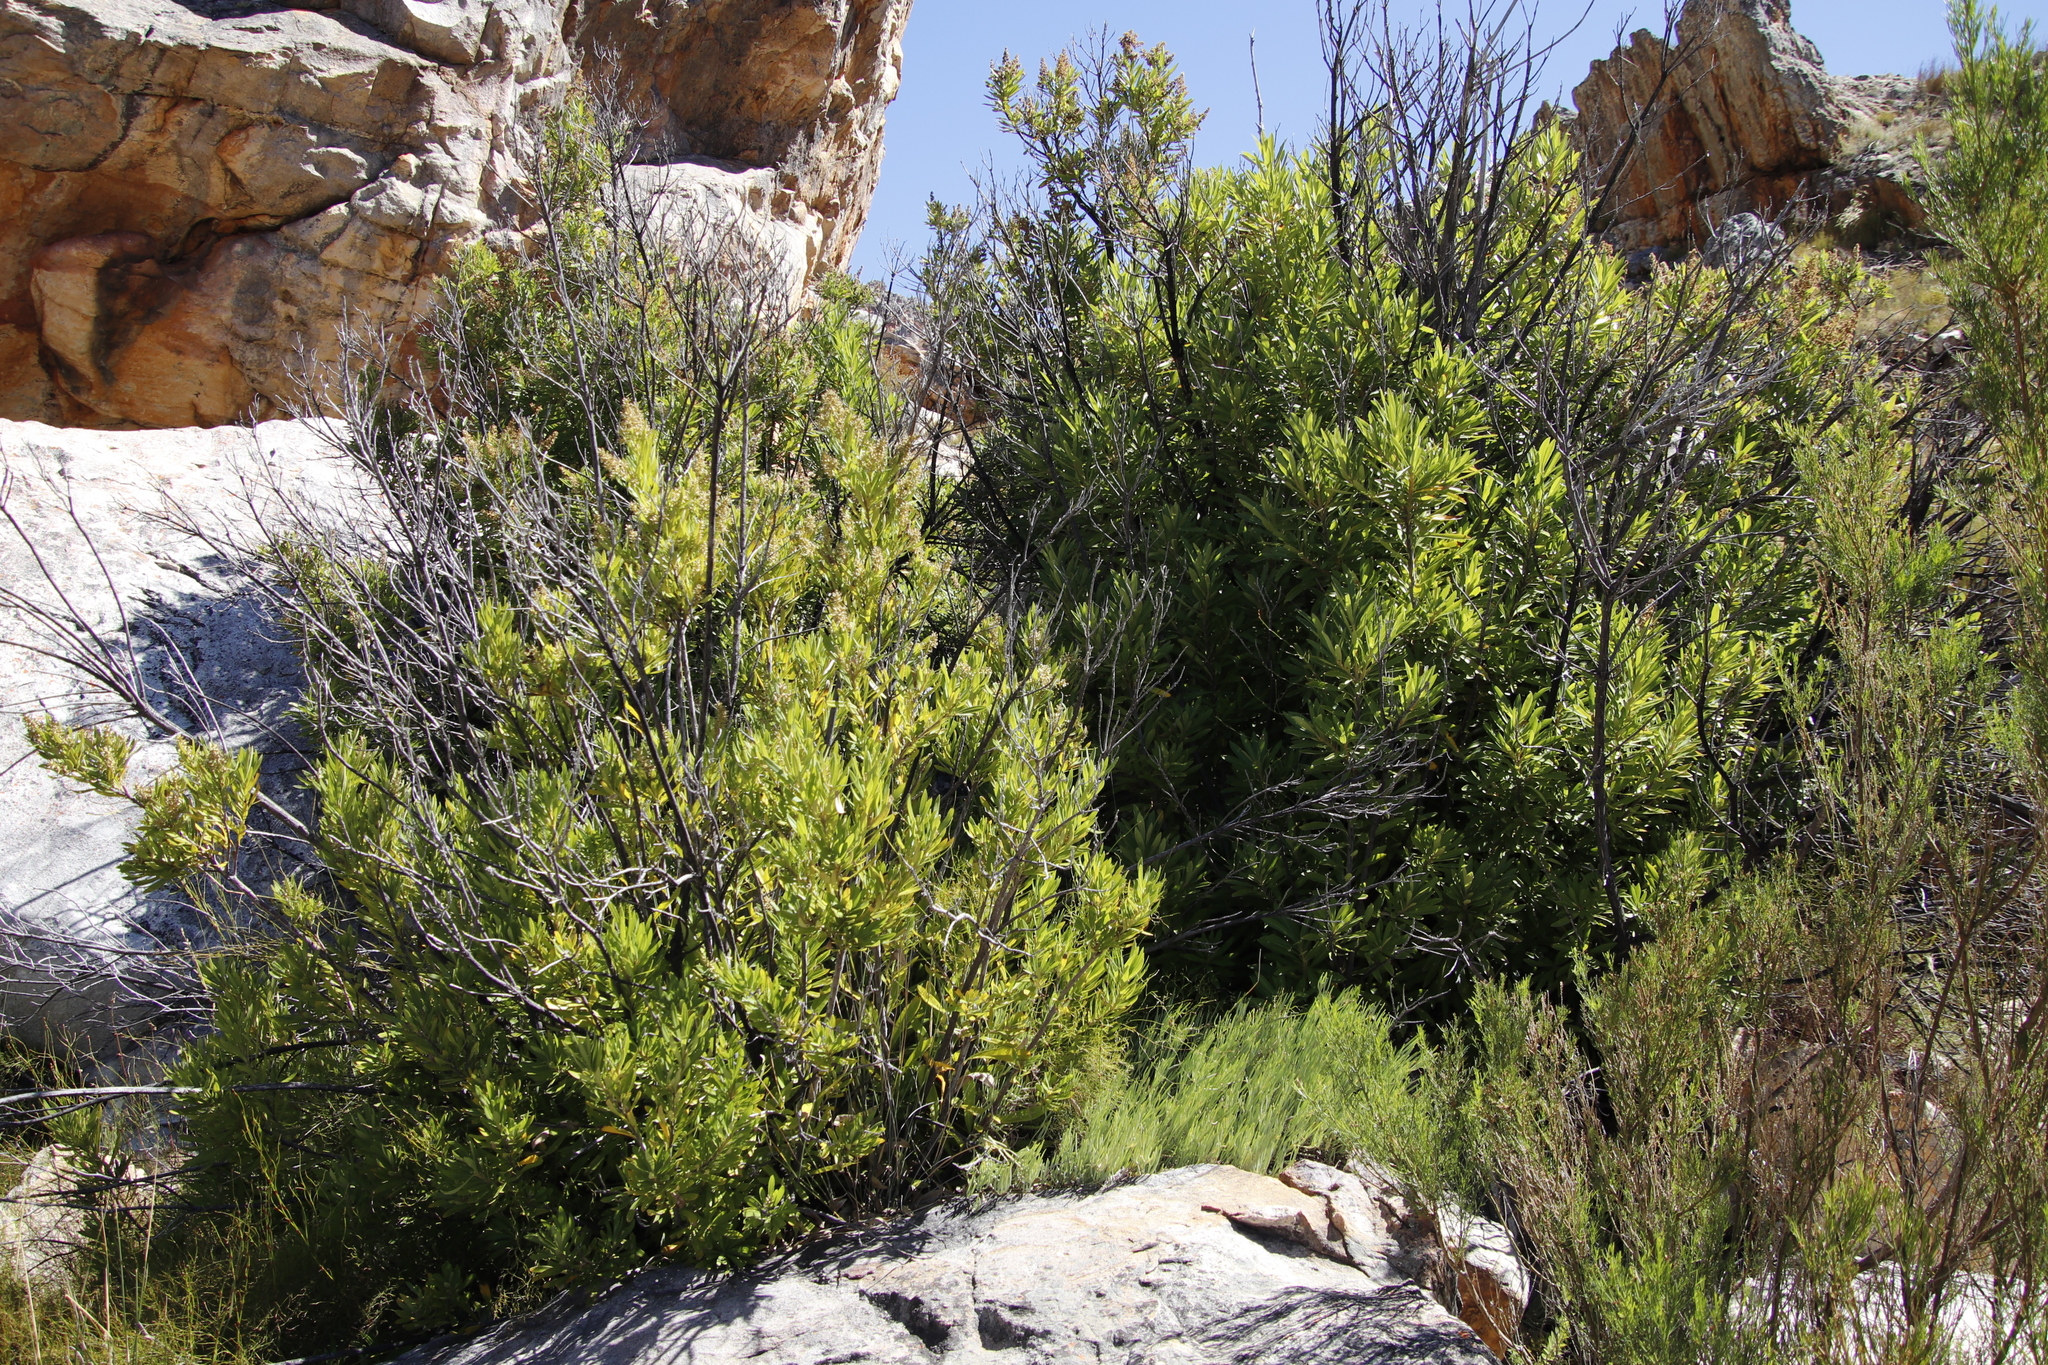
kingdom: Plantae
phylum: Tracheophyta
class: Magnoliopsida
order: Asterales
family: Asteraceae
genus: Brachylaena
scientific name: Brachylaena neriifolia
